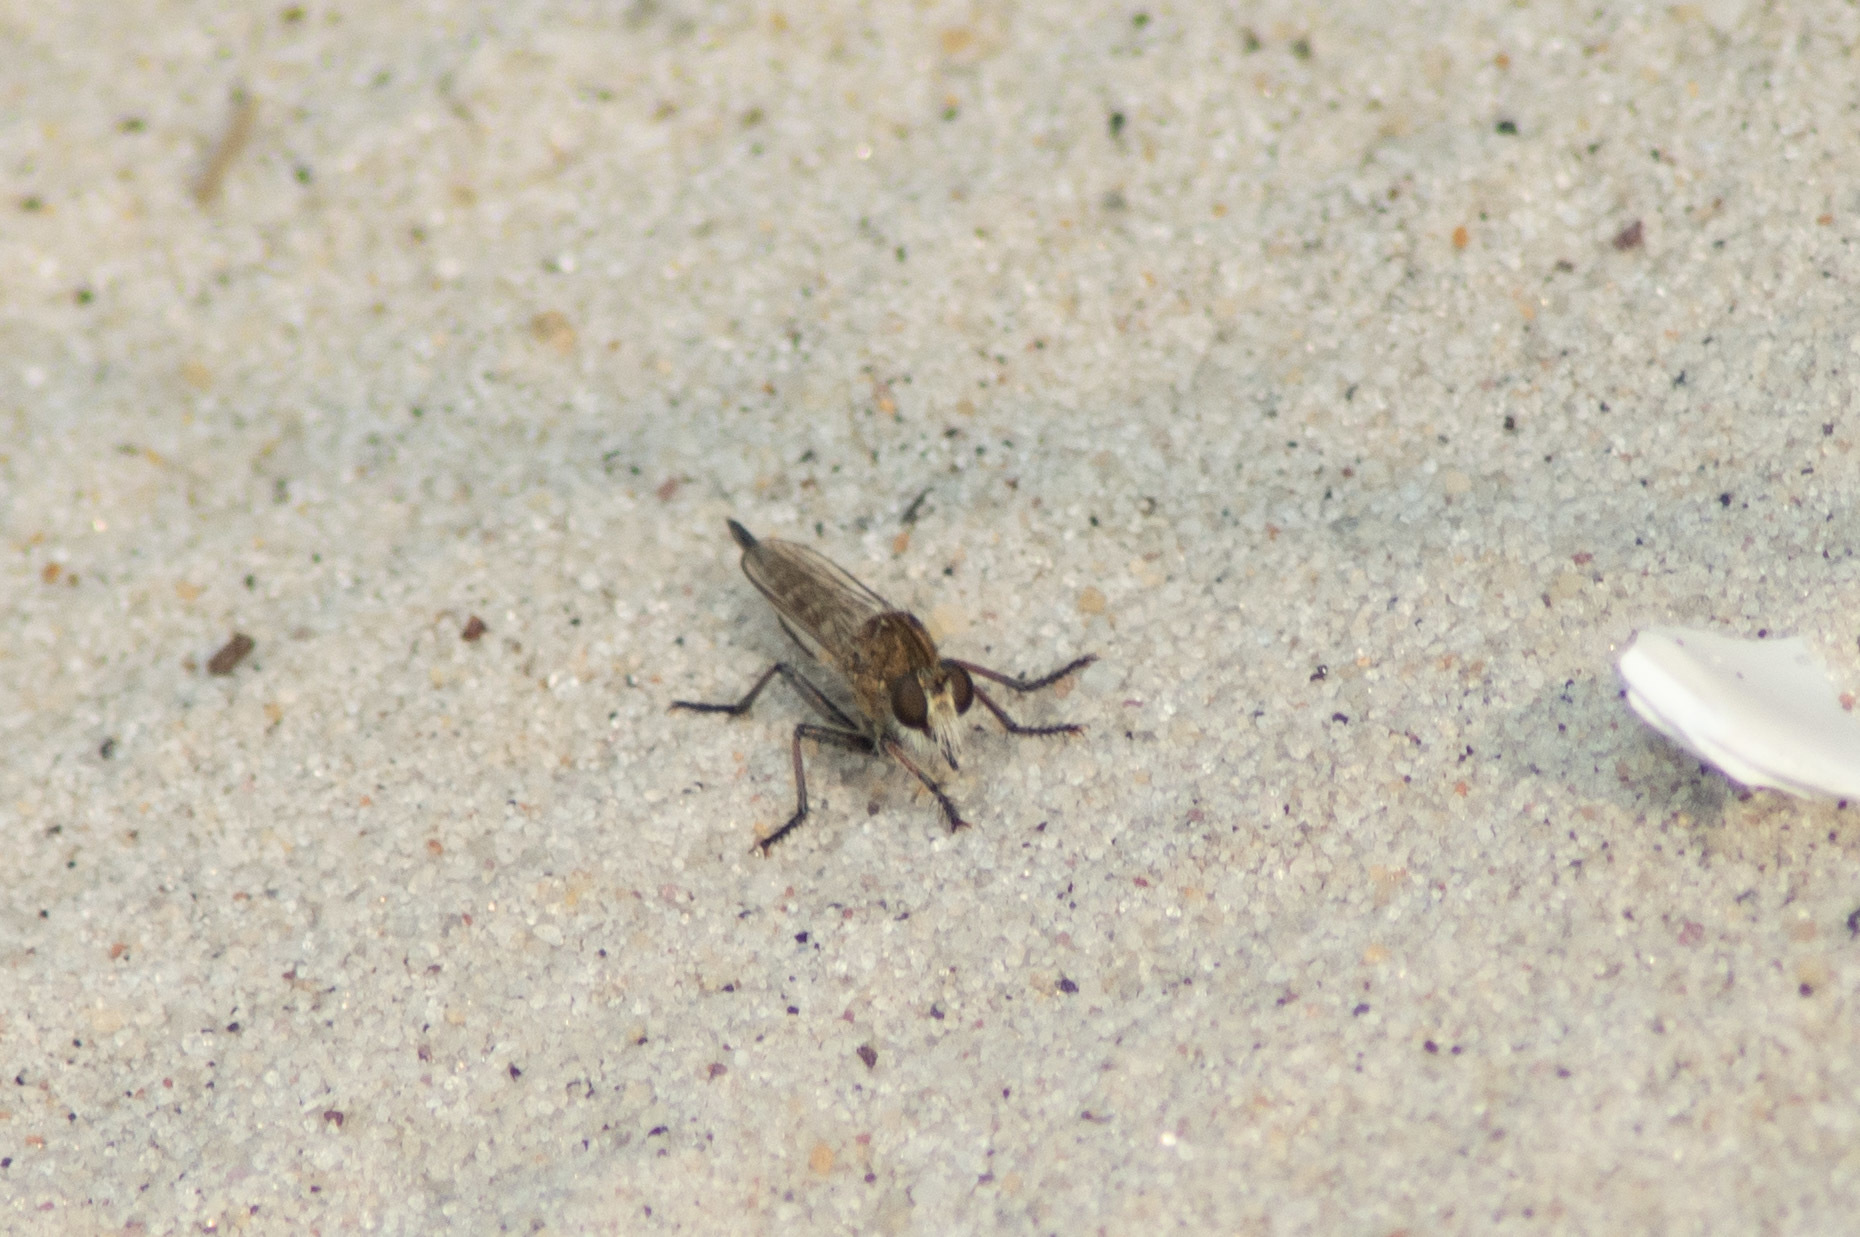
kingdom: Animalia
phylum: Arthropoda
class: Insecta
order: Diptera
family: Asilidae
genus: Efferia
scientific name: Efferia albibarbis
